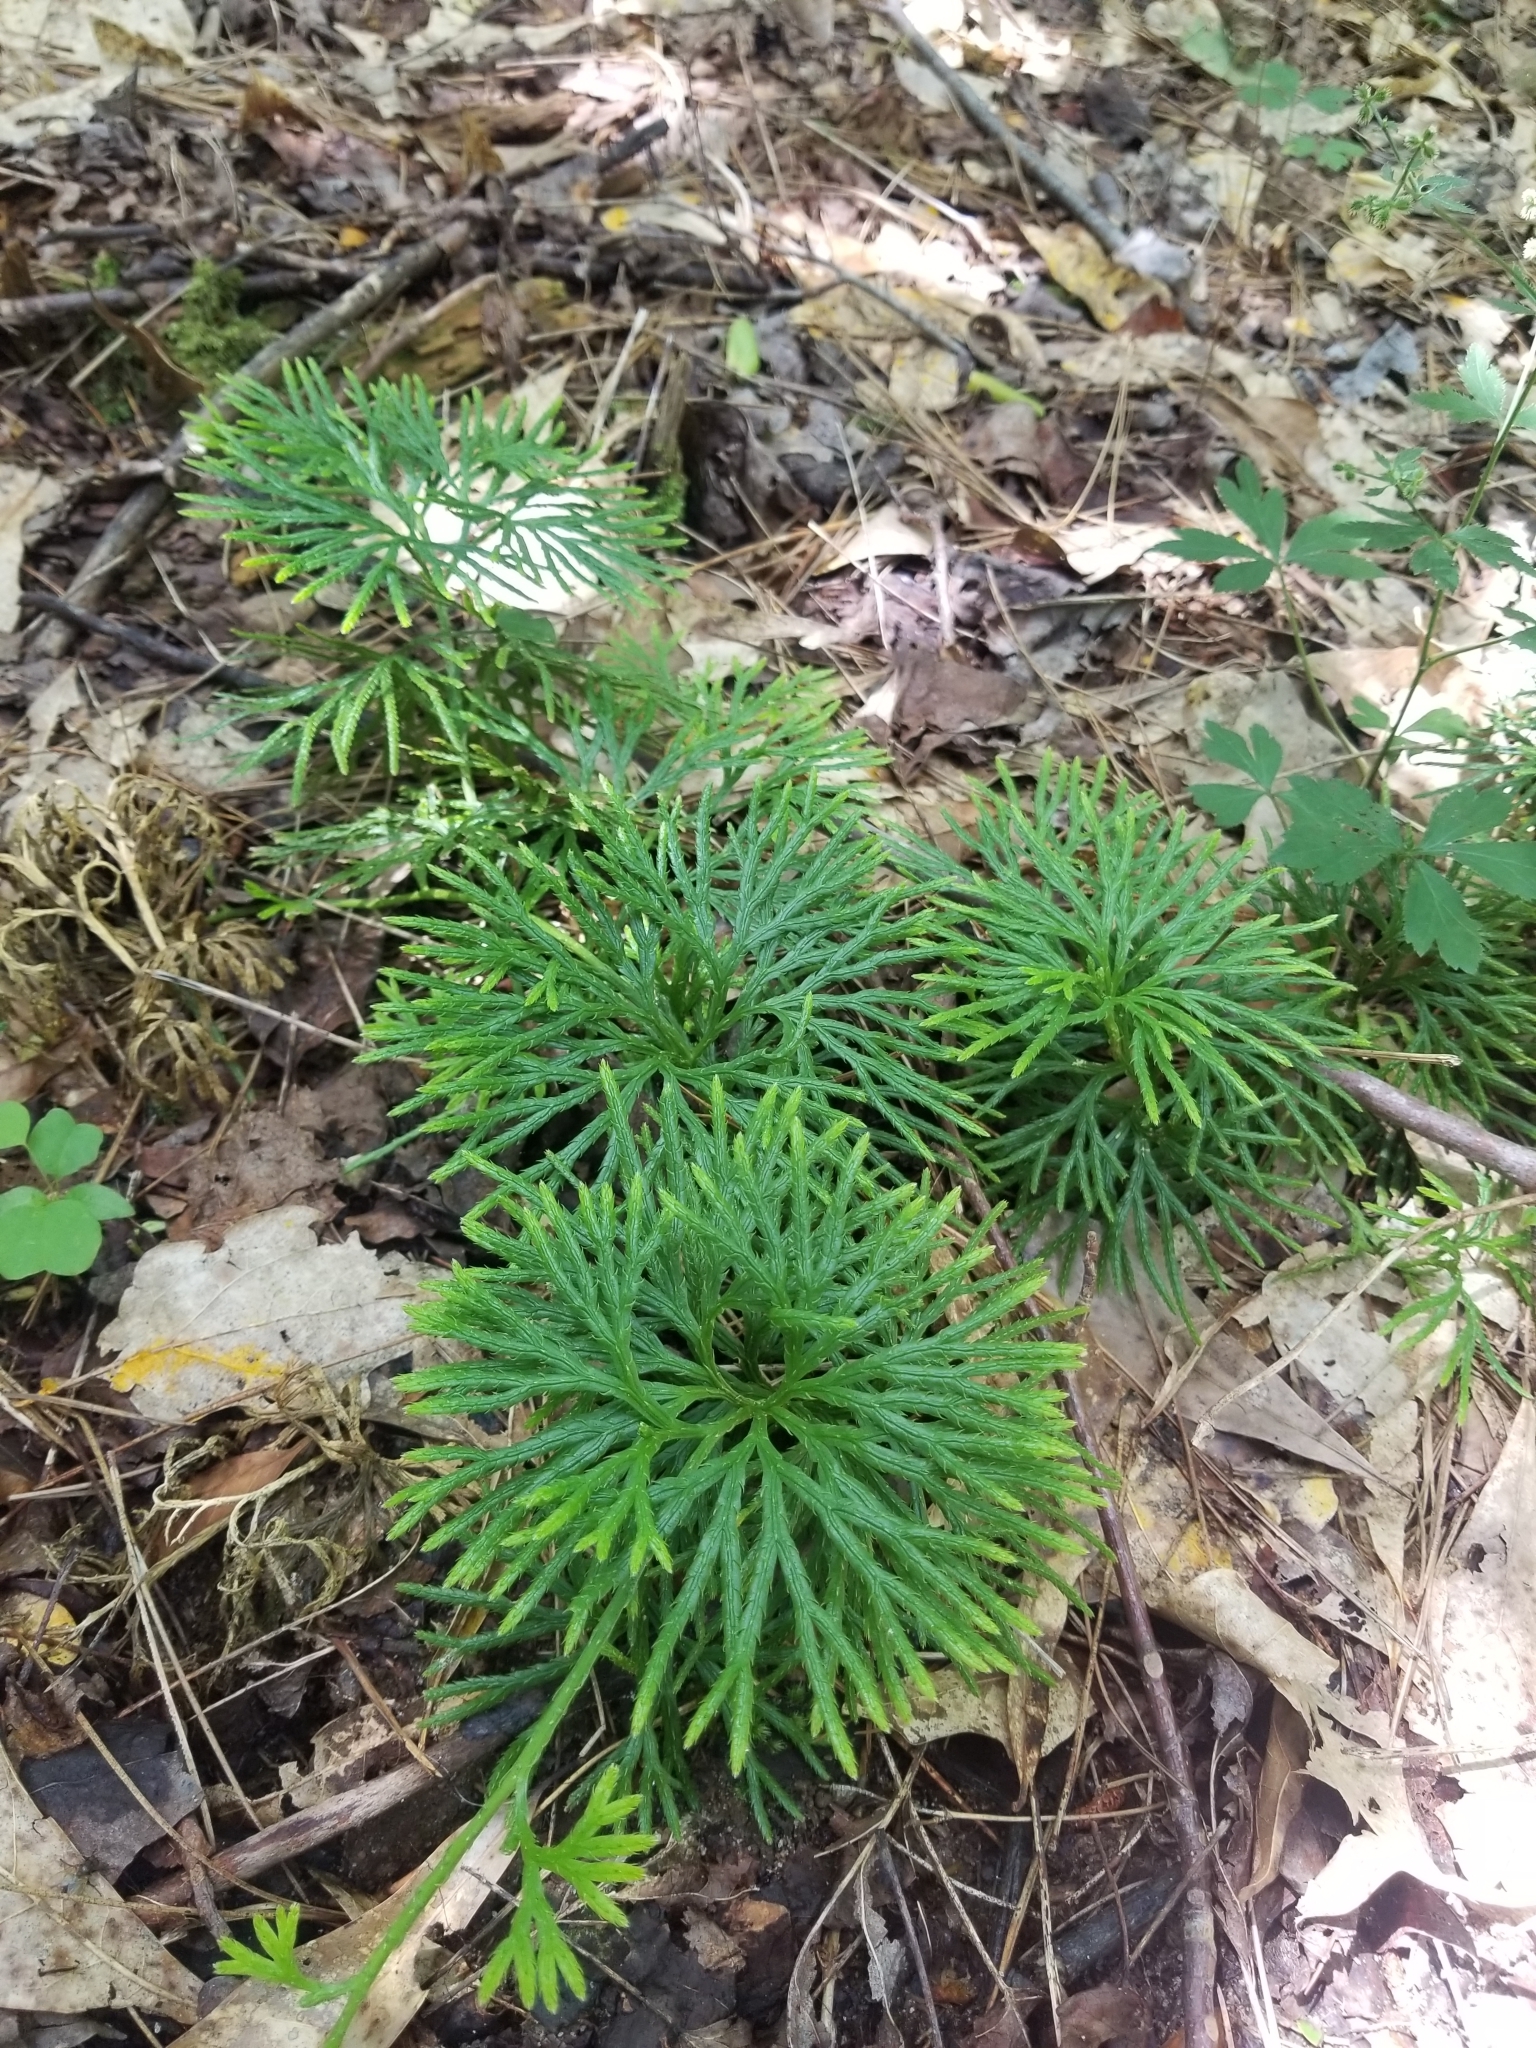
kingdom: Plantae
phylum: Tracheophyta
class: Lycopodiopsida
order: Lycopodiales
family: Lycopodiaceae
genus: Diphasiastrum
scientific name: Diphasiastrum digitatum
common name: Southern running-pine
